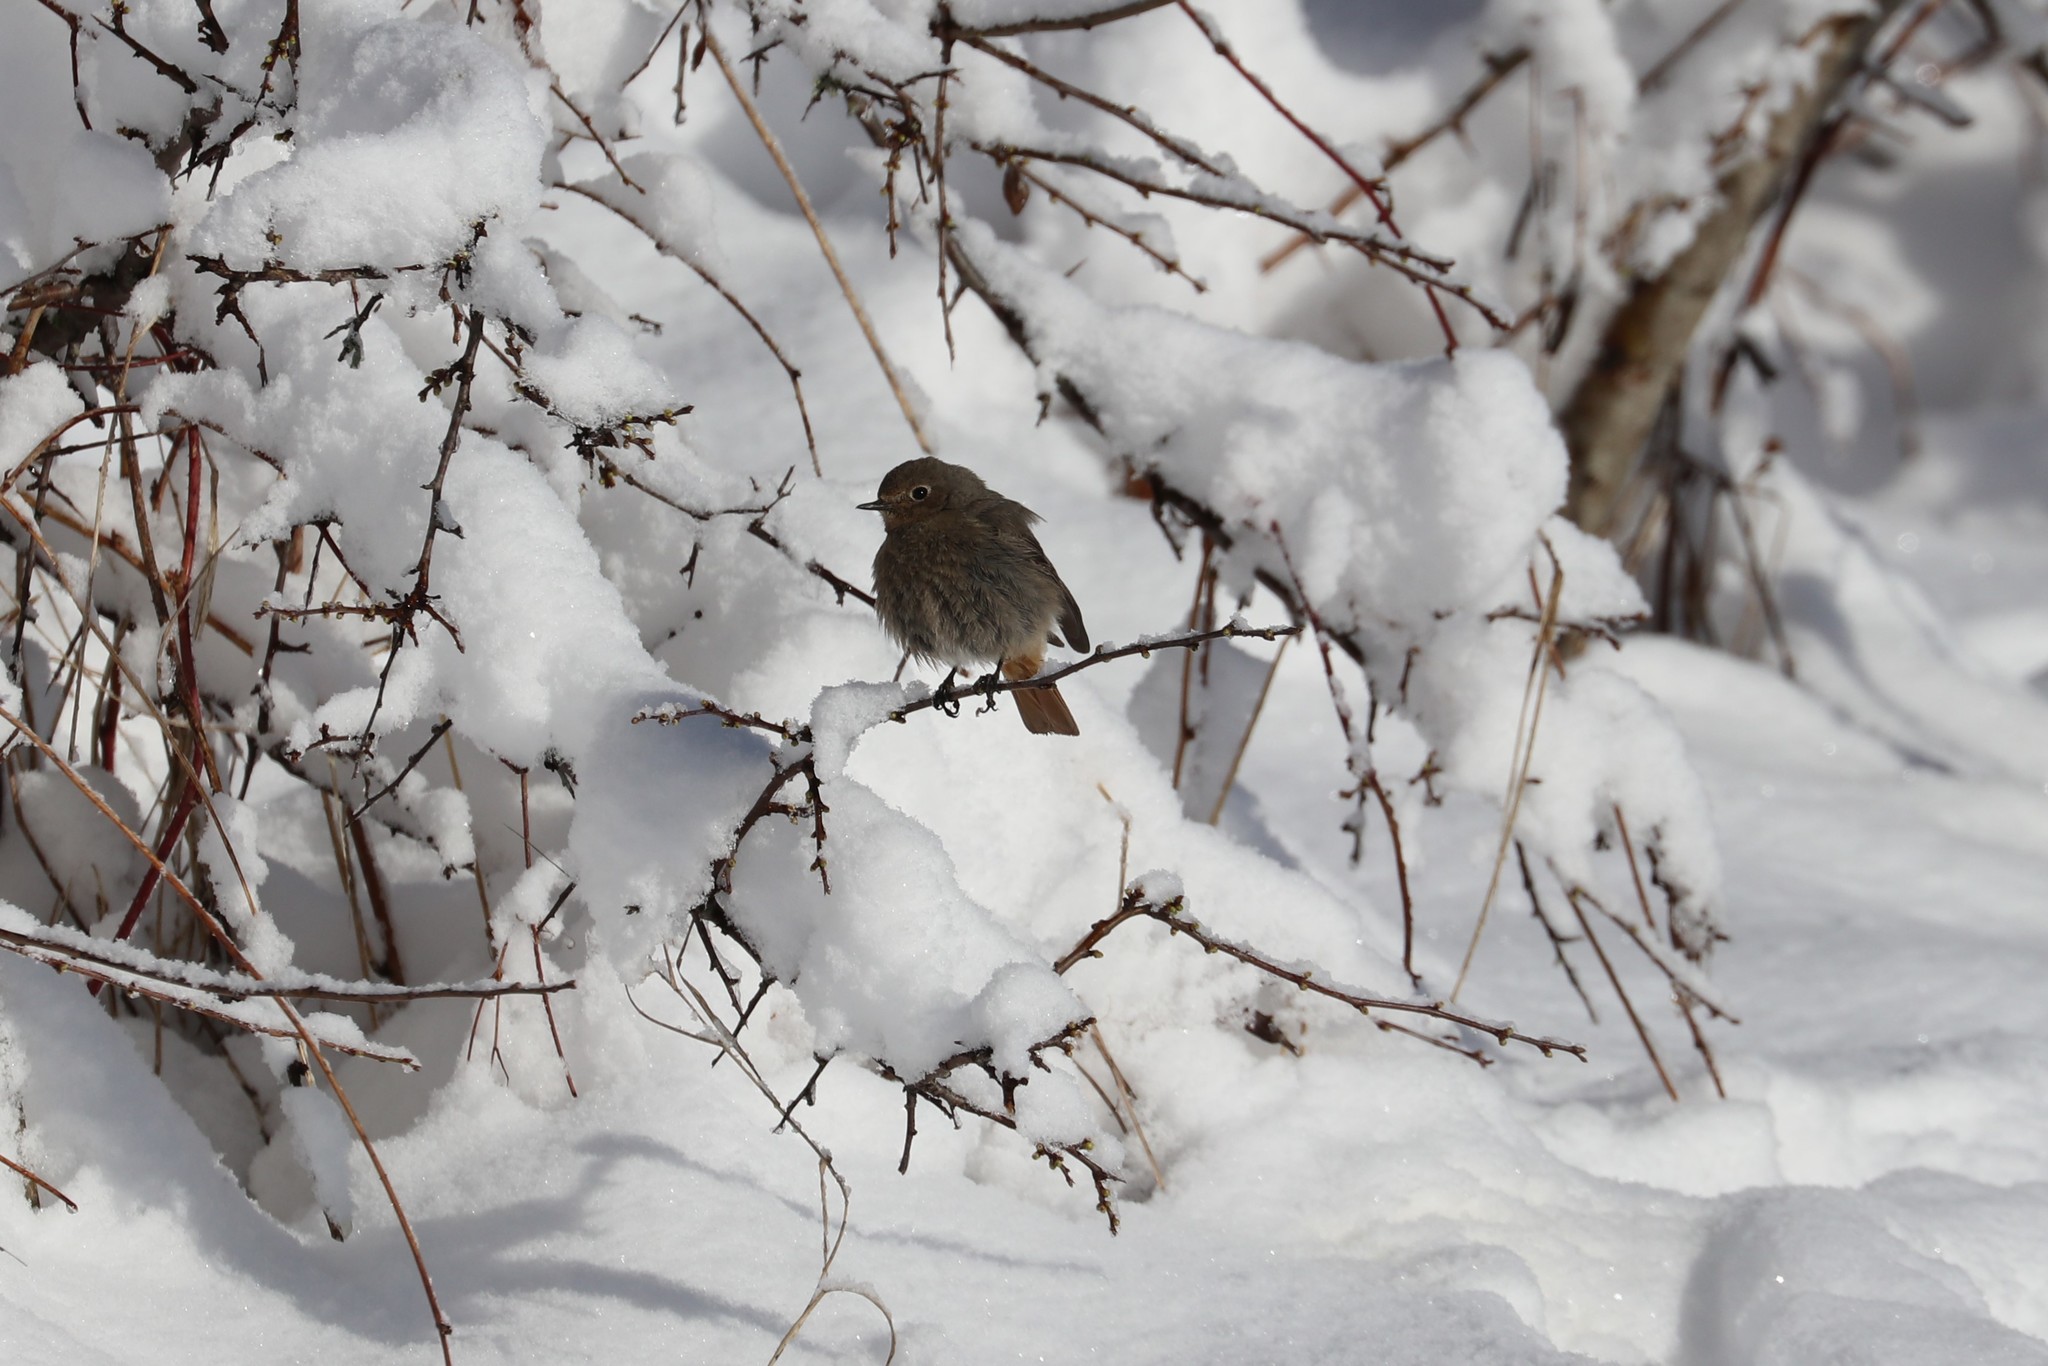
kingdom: Animalia
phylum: Chordata
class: Aves
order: Passeriformes
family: Muscicapidae
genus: Phoenicurus
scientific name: Phoenicurus ochruros
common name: Black redstart
